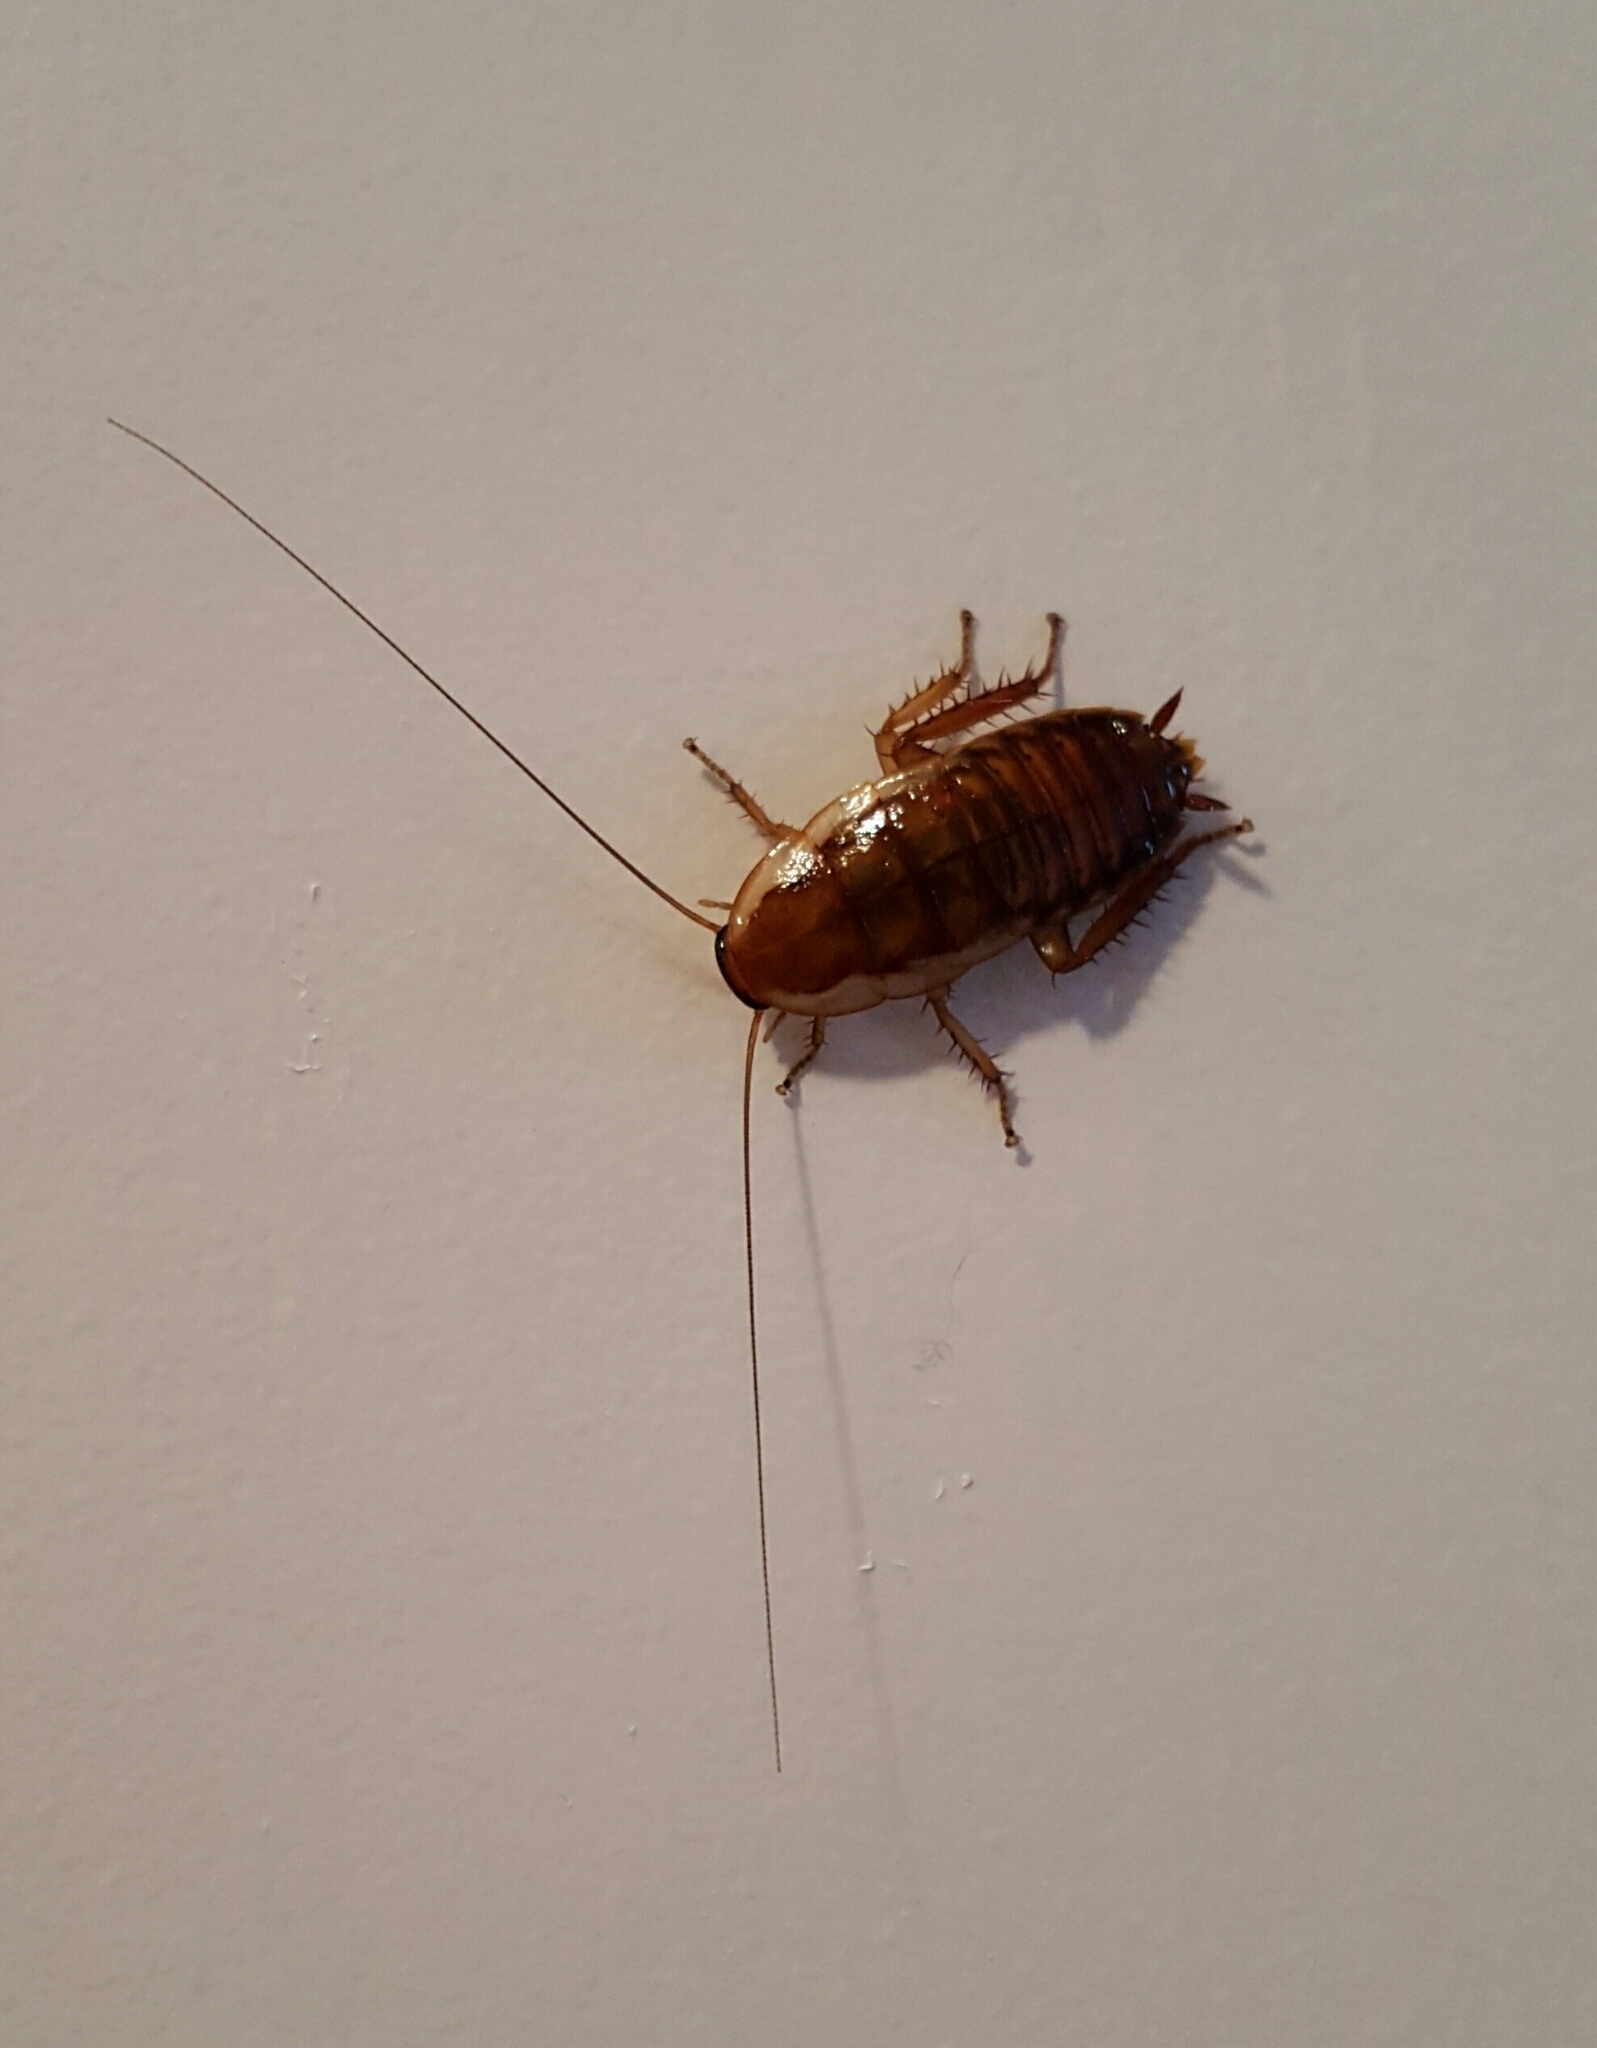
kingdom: Animalia
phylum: Arthropoda
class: Insecta
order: Blattodea
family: Blattidae
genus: Drymaplaneta
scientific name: Drymaplaneta semivitta
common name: Gisborne cockroach
